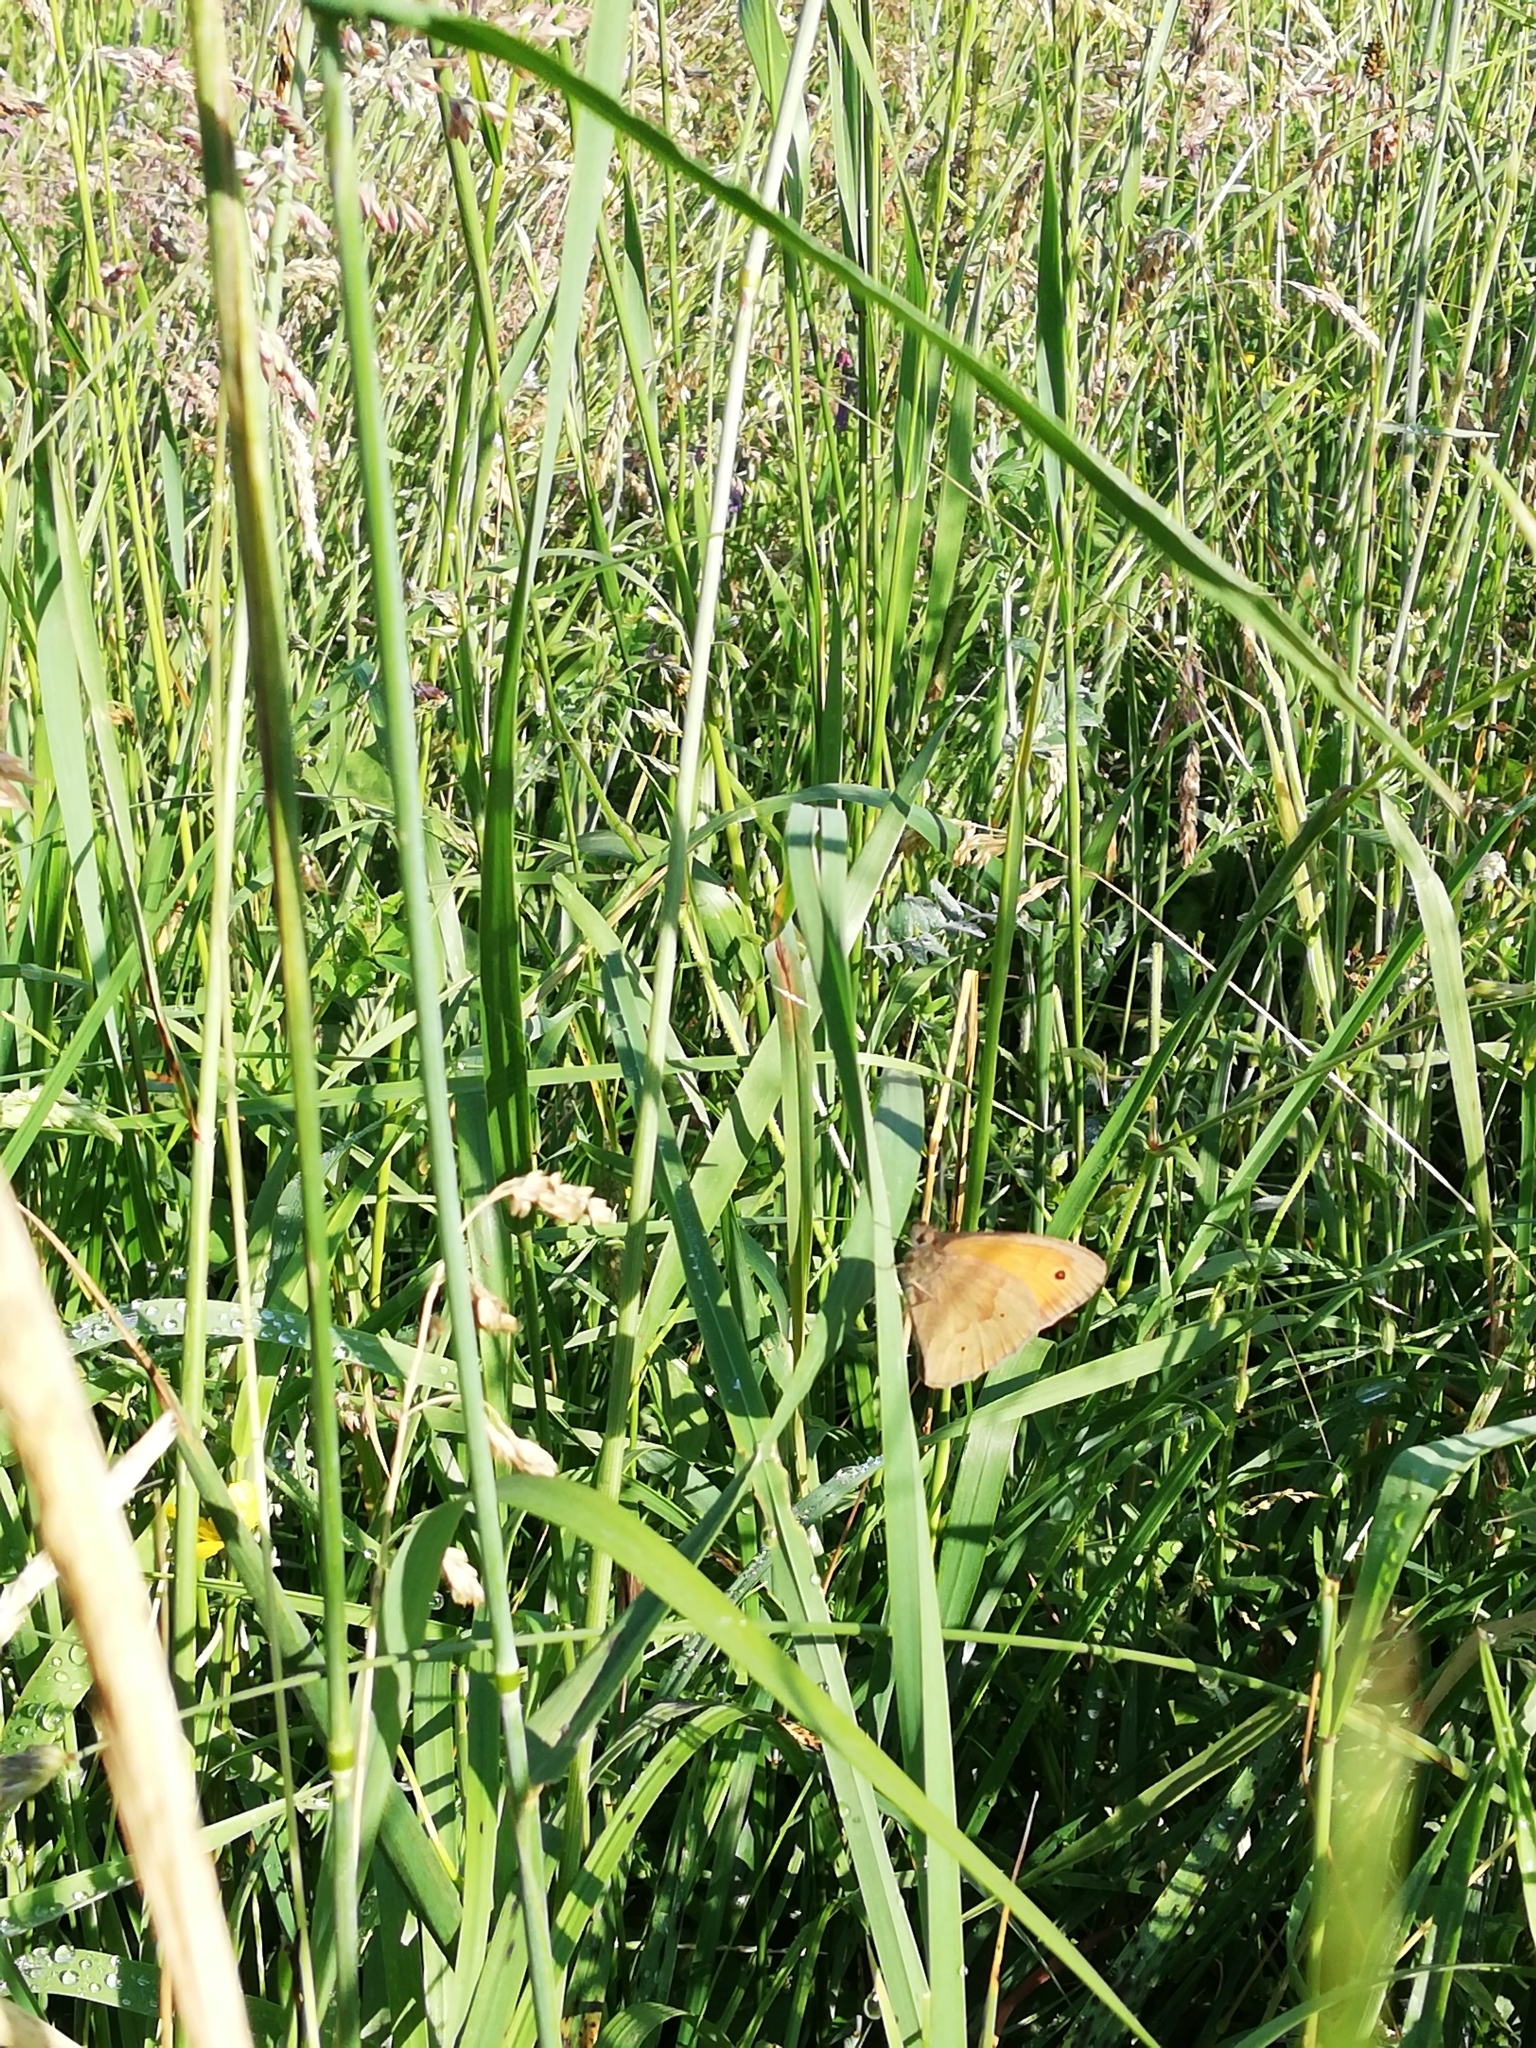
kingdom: Animalia
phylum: Arthropoda
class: Insecta
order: Lepidoptera
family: Nymphalidae
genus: Maniola
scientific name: Maniola jurtina
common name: Meadow brown
